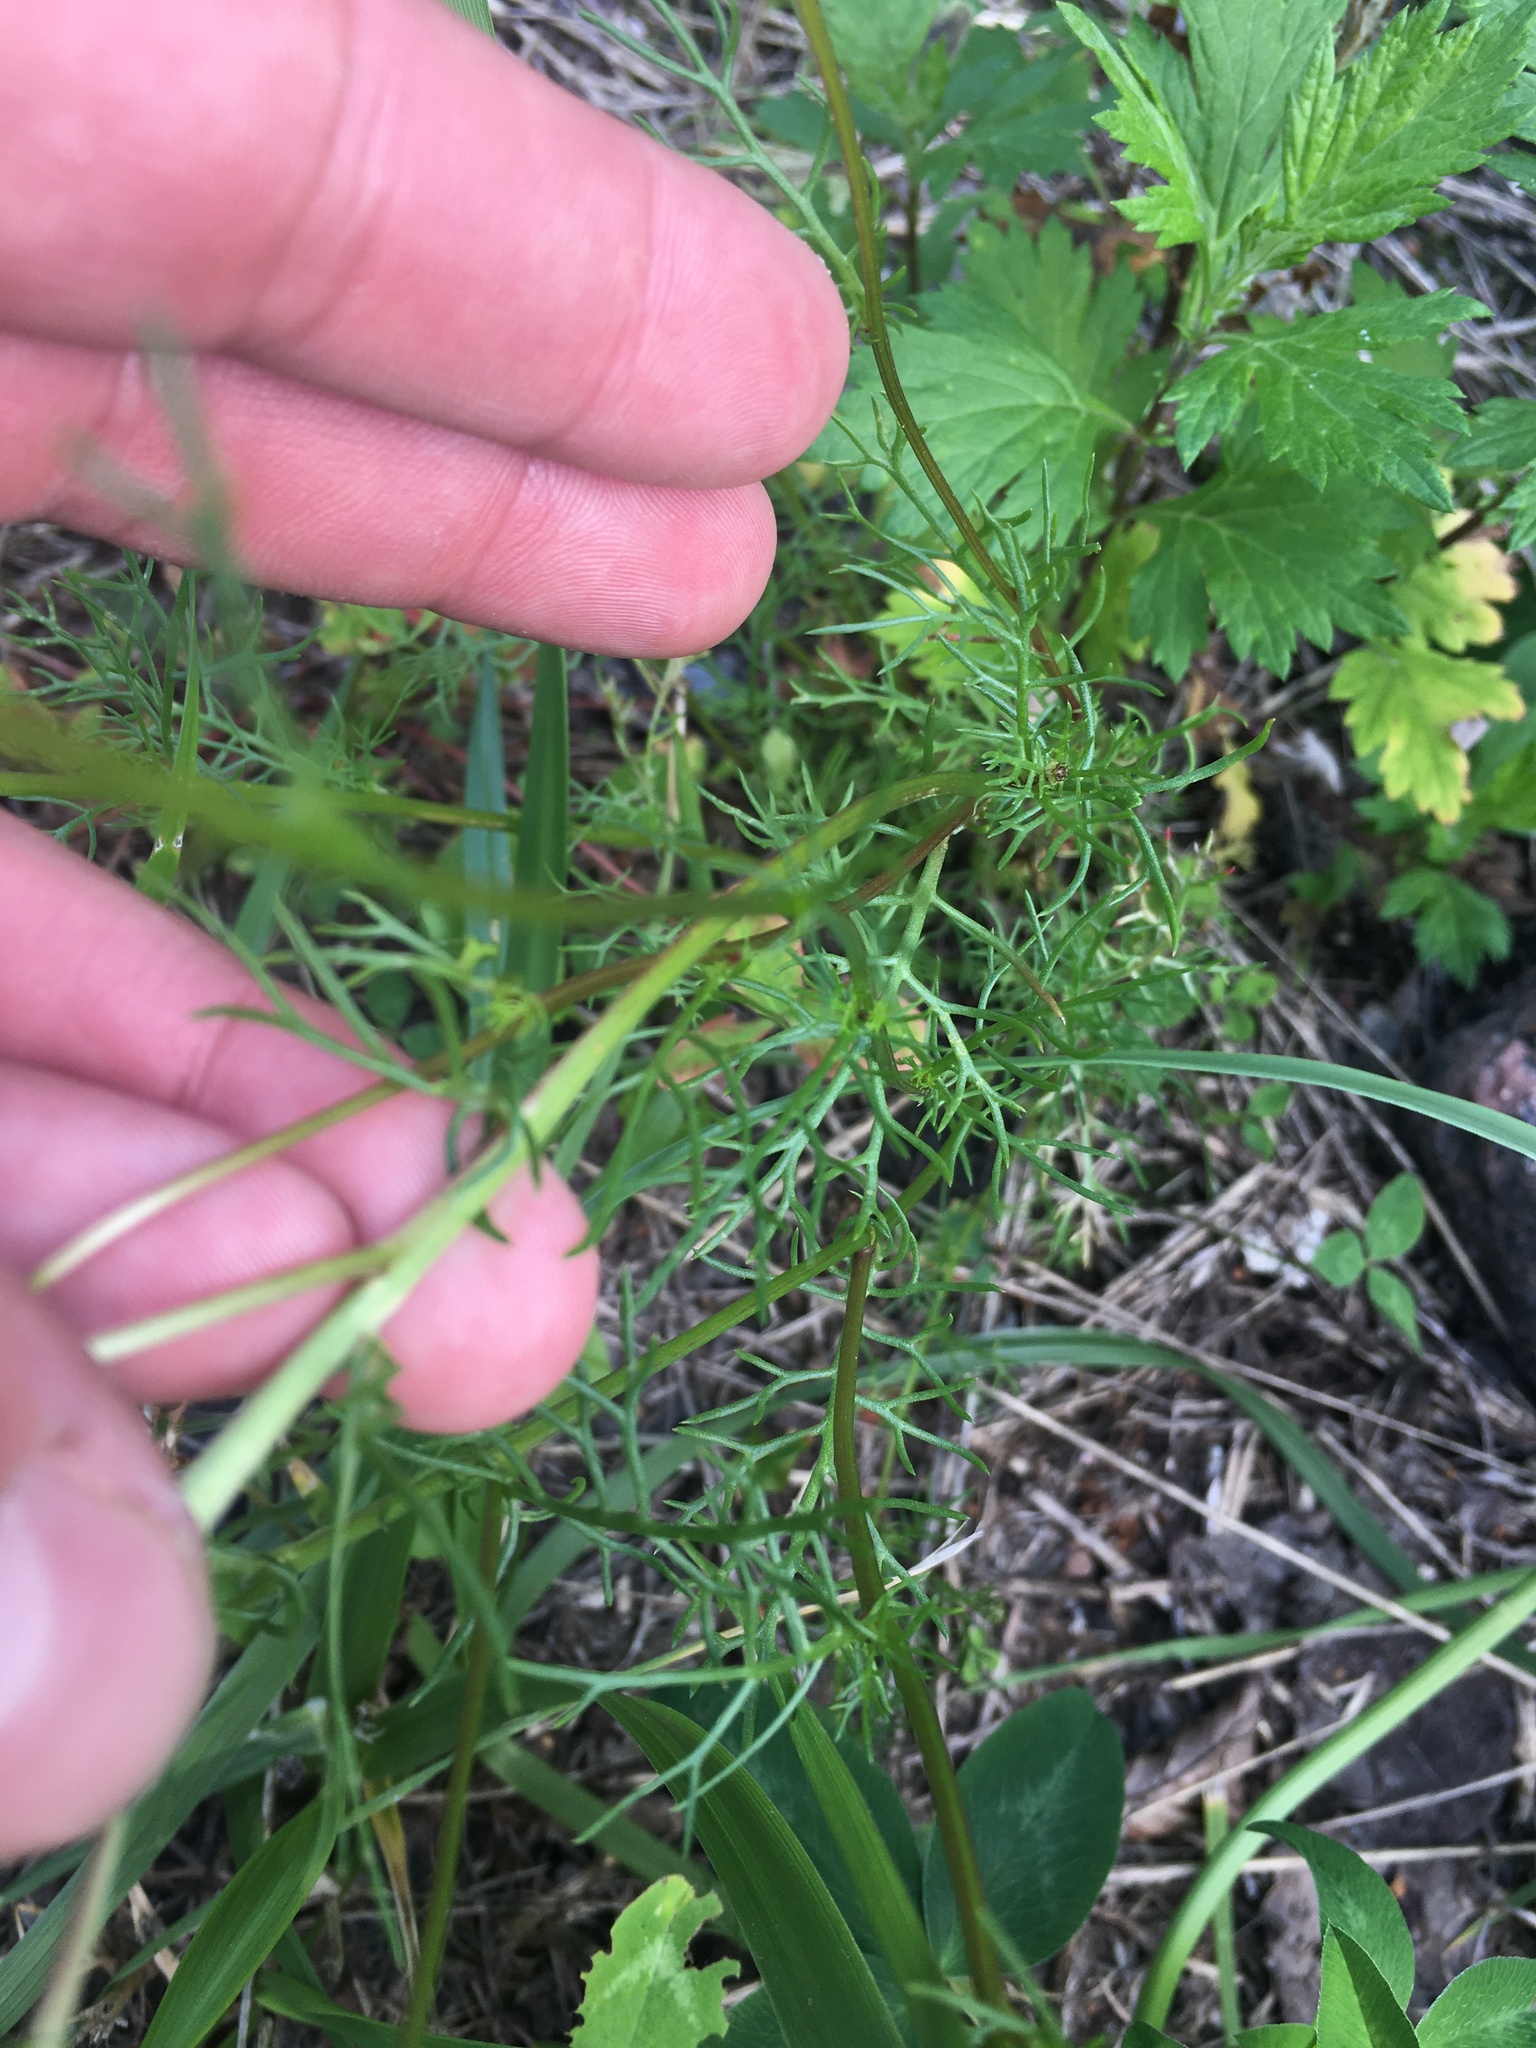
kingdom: Plantae
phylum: Tracheophyta
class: Magnoliopsida
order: Asterales
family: Asteraceae
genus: Tripleurospermum
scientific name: Tripleurospermum inodorum
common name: Scentless mayweed
